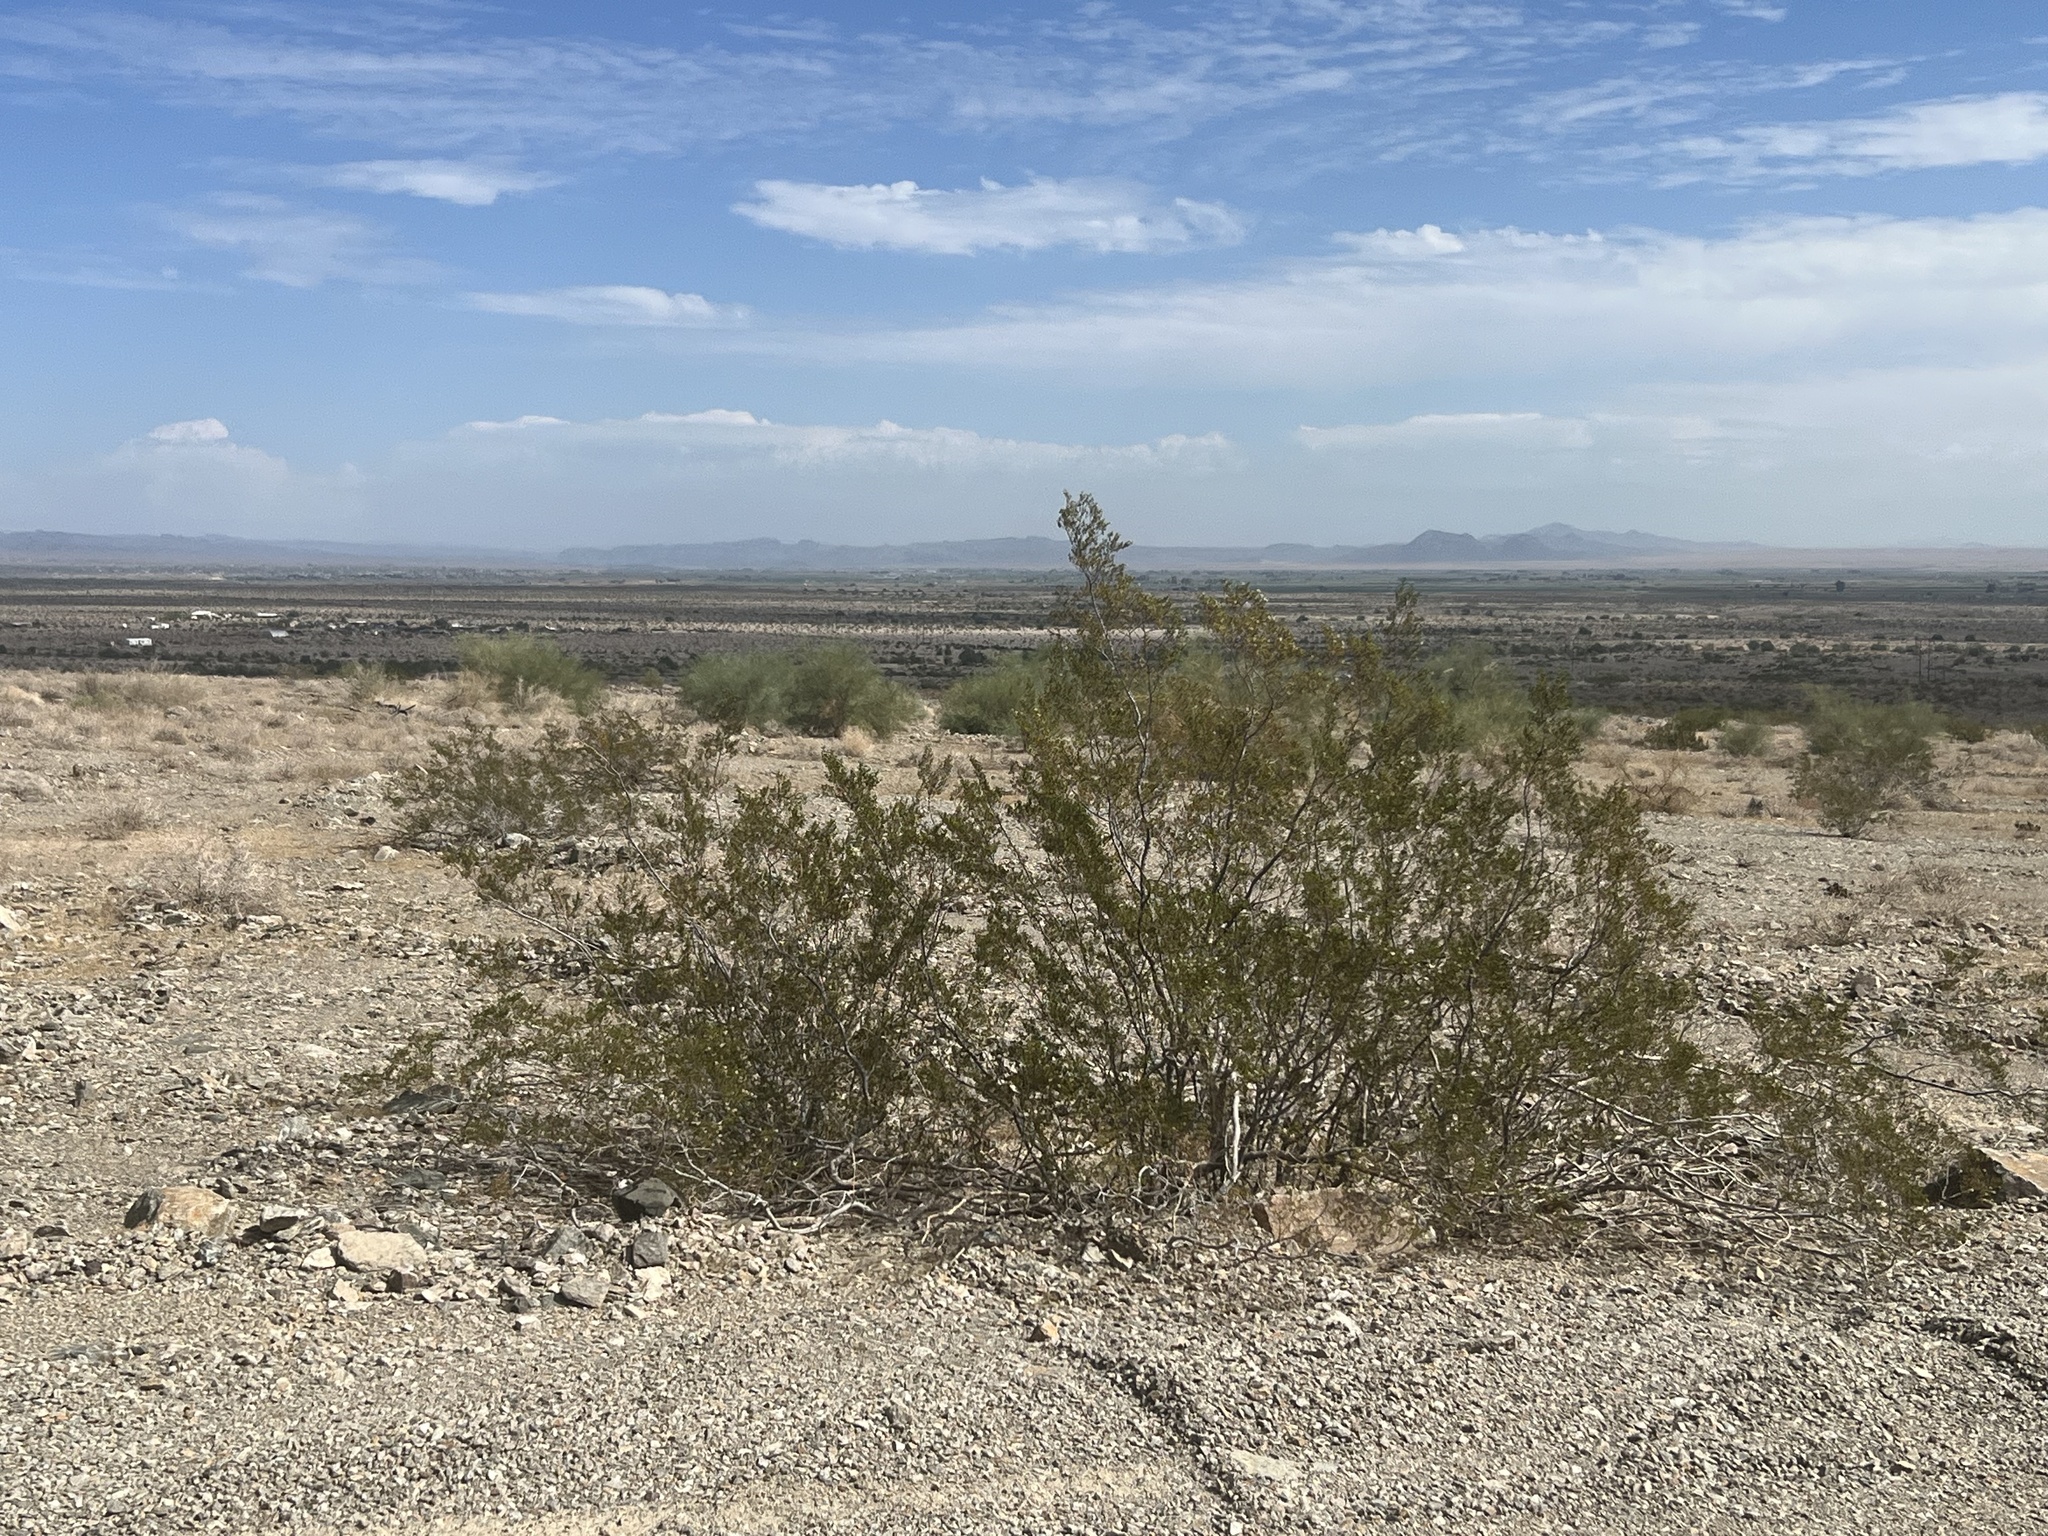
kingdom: Plantae
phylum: Tracheophyta
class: Magnoliopsida
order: Zygophyllales
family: Zygophyllaceae
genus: Larrea
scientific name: Larrea tridentata
